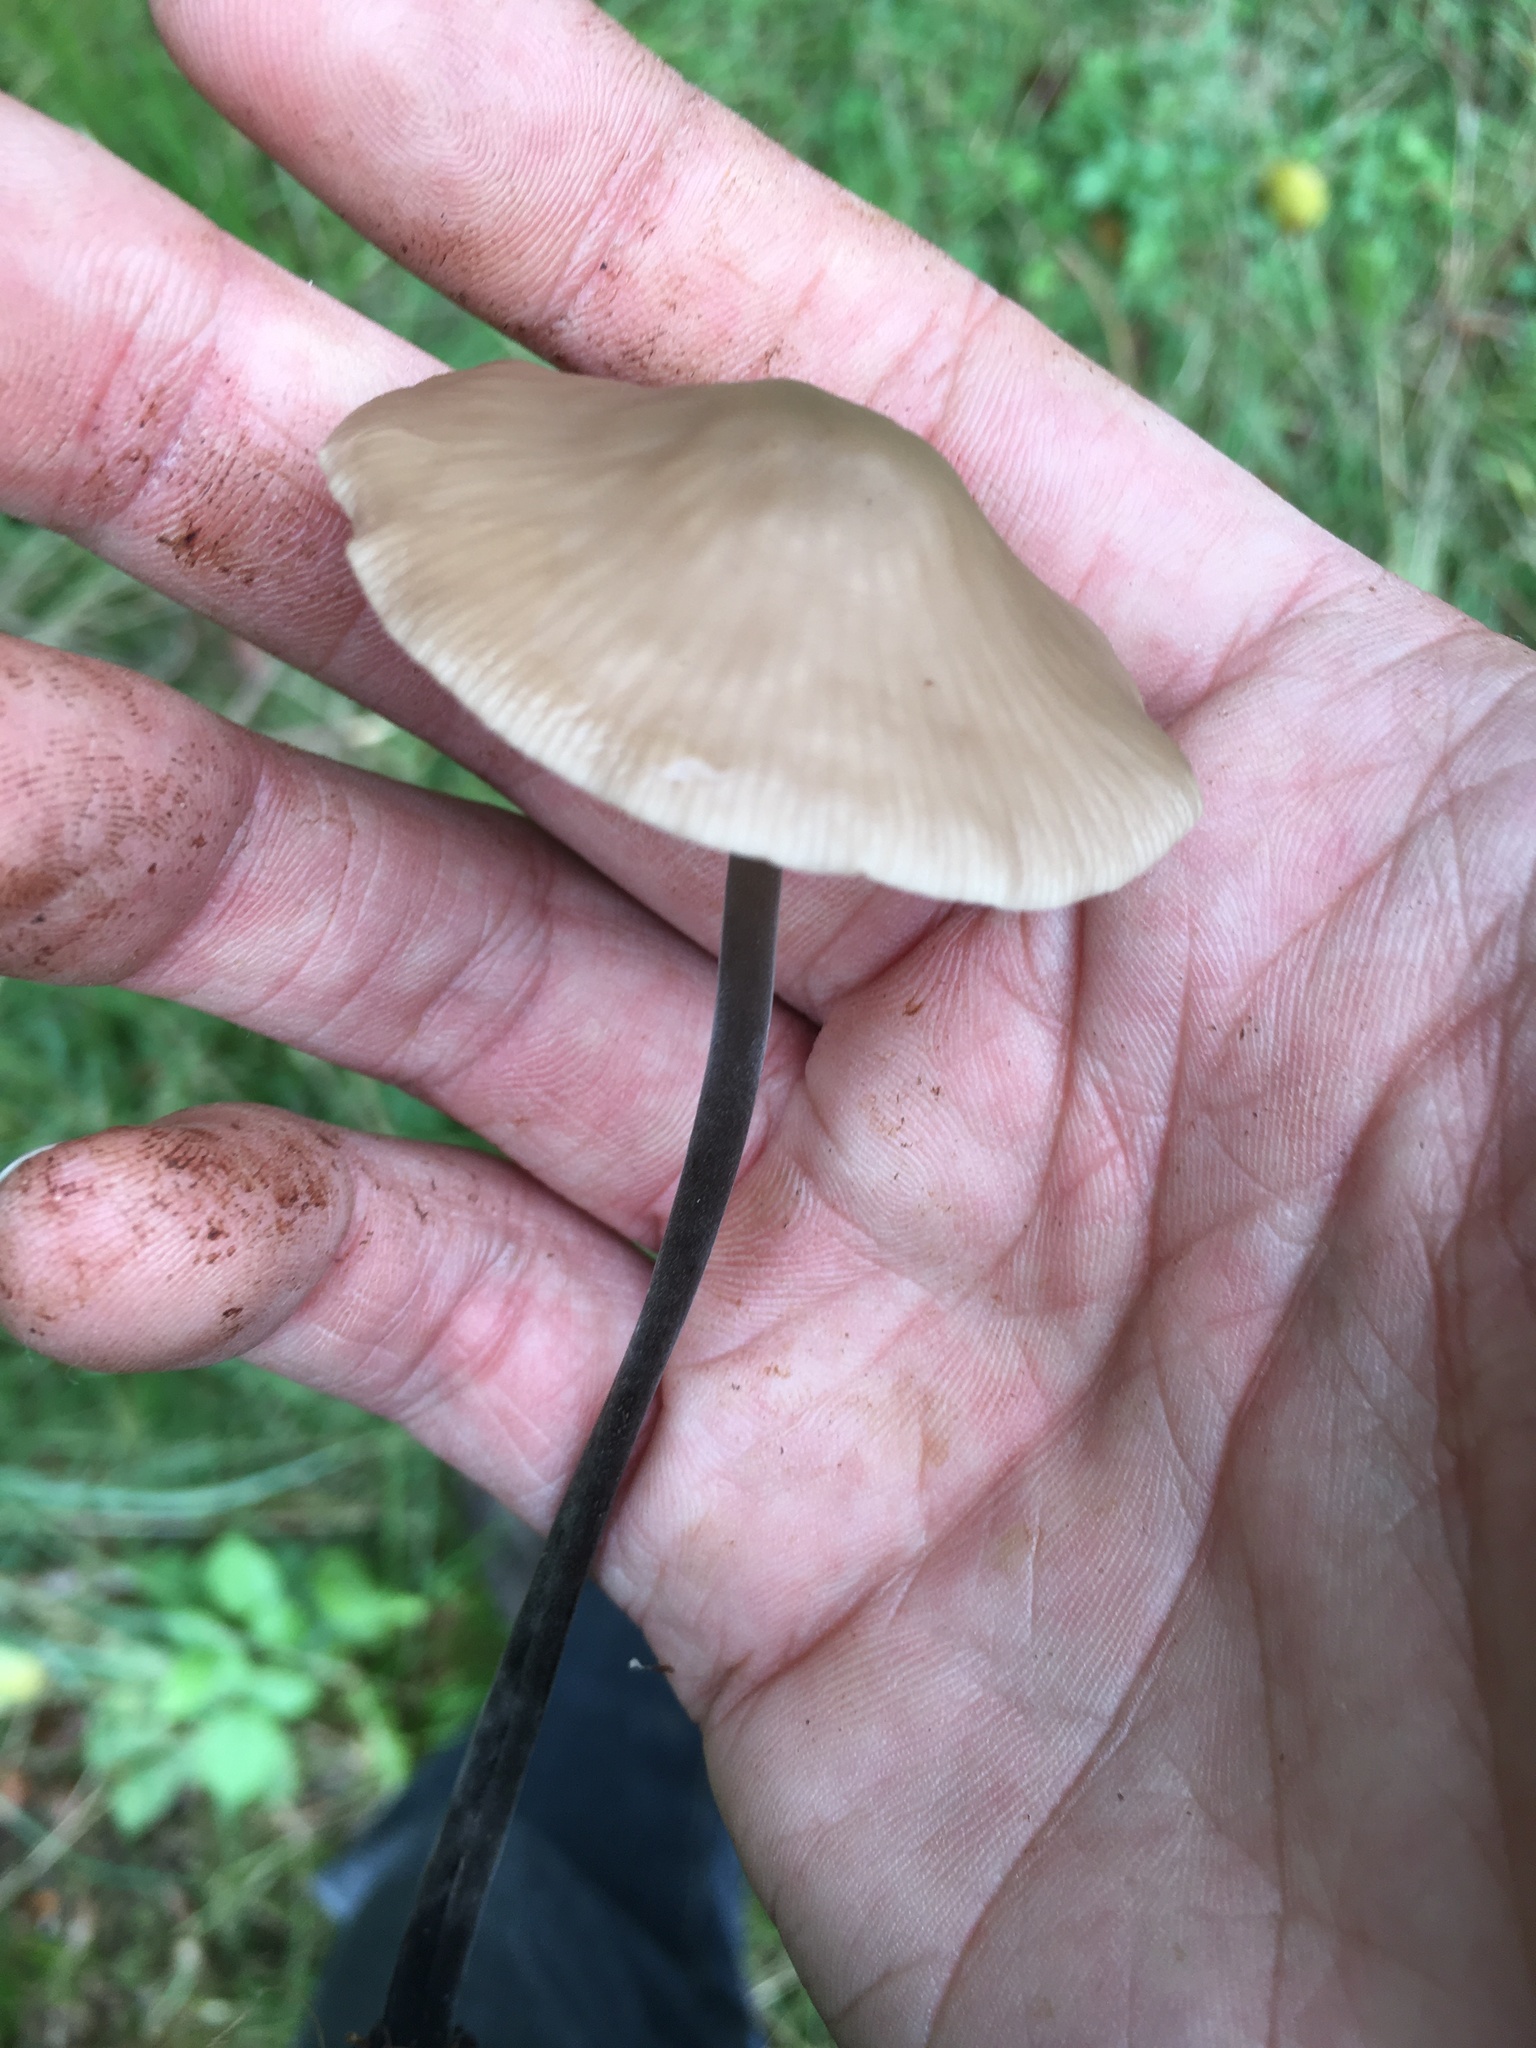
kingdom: Fungi
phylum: Basidiomycota
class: Agaricomycetes
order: Agaricales
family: Omphalotaceae
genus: Mycetinis
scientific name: Mycetinis alliaceus
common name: Garlic parachute
